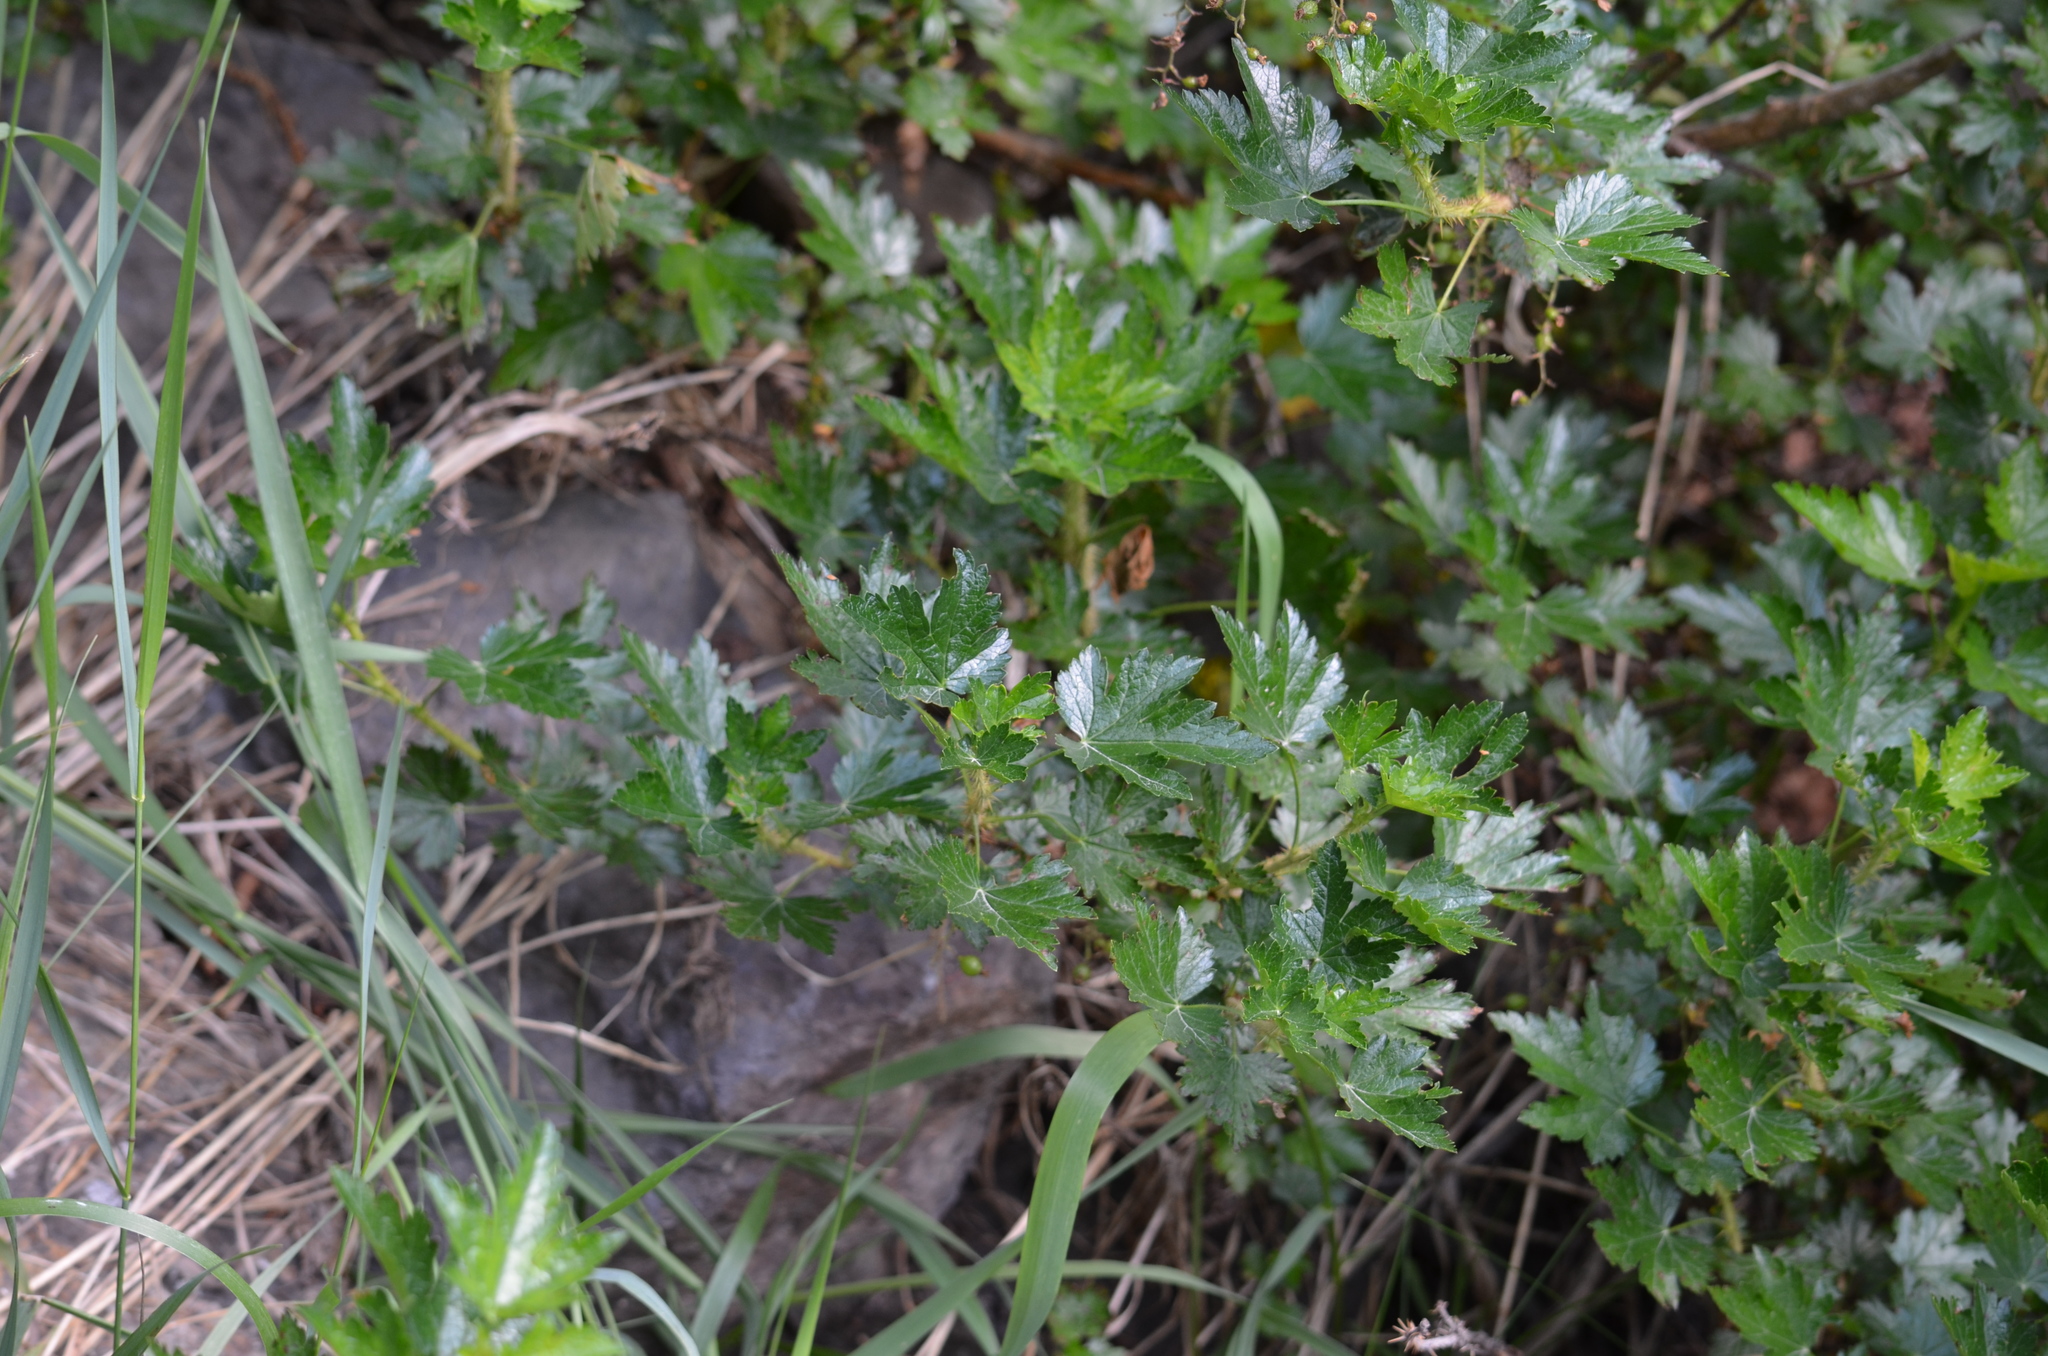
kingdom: Plantae
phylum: Tracheophyta
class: Magnoliopsida
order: Saxifragales
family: Grossulariaceae
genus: Ribes
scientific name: Ribes lacustre
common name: Black gooseberry
